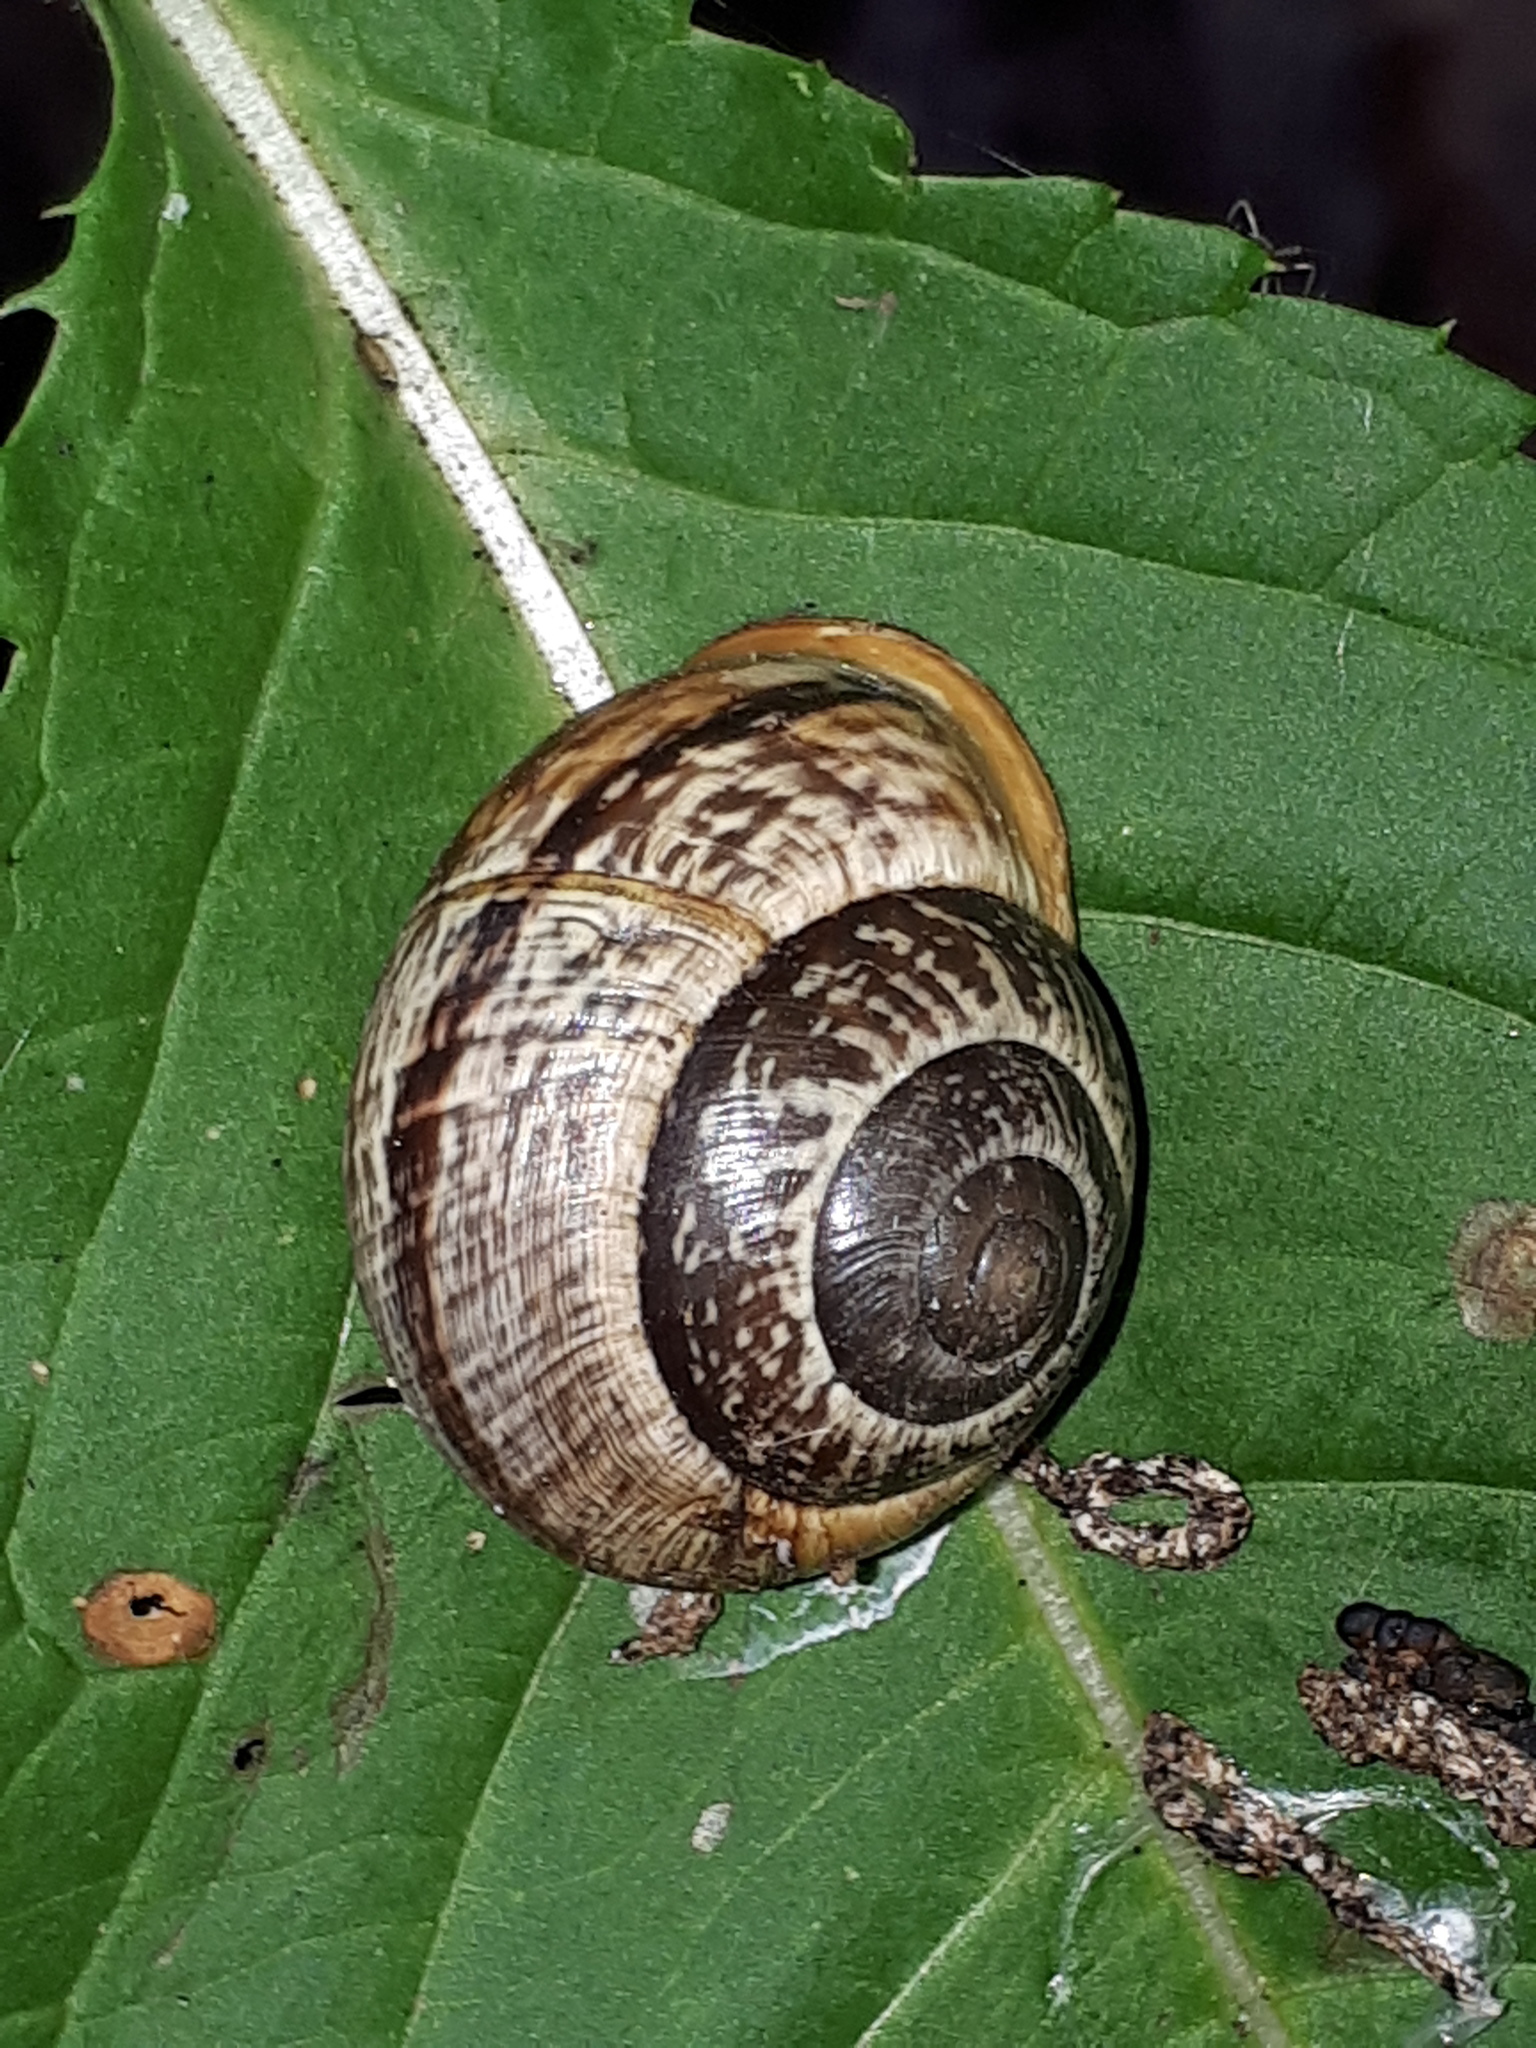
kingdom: Animalia
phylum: Mollusca
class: Gastropoda
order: Stylommatophora
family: Helicidae
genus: Arianta
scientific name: Arianta arbustorum
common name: Copse snail
